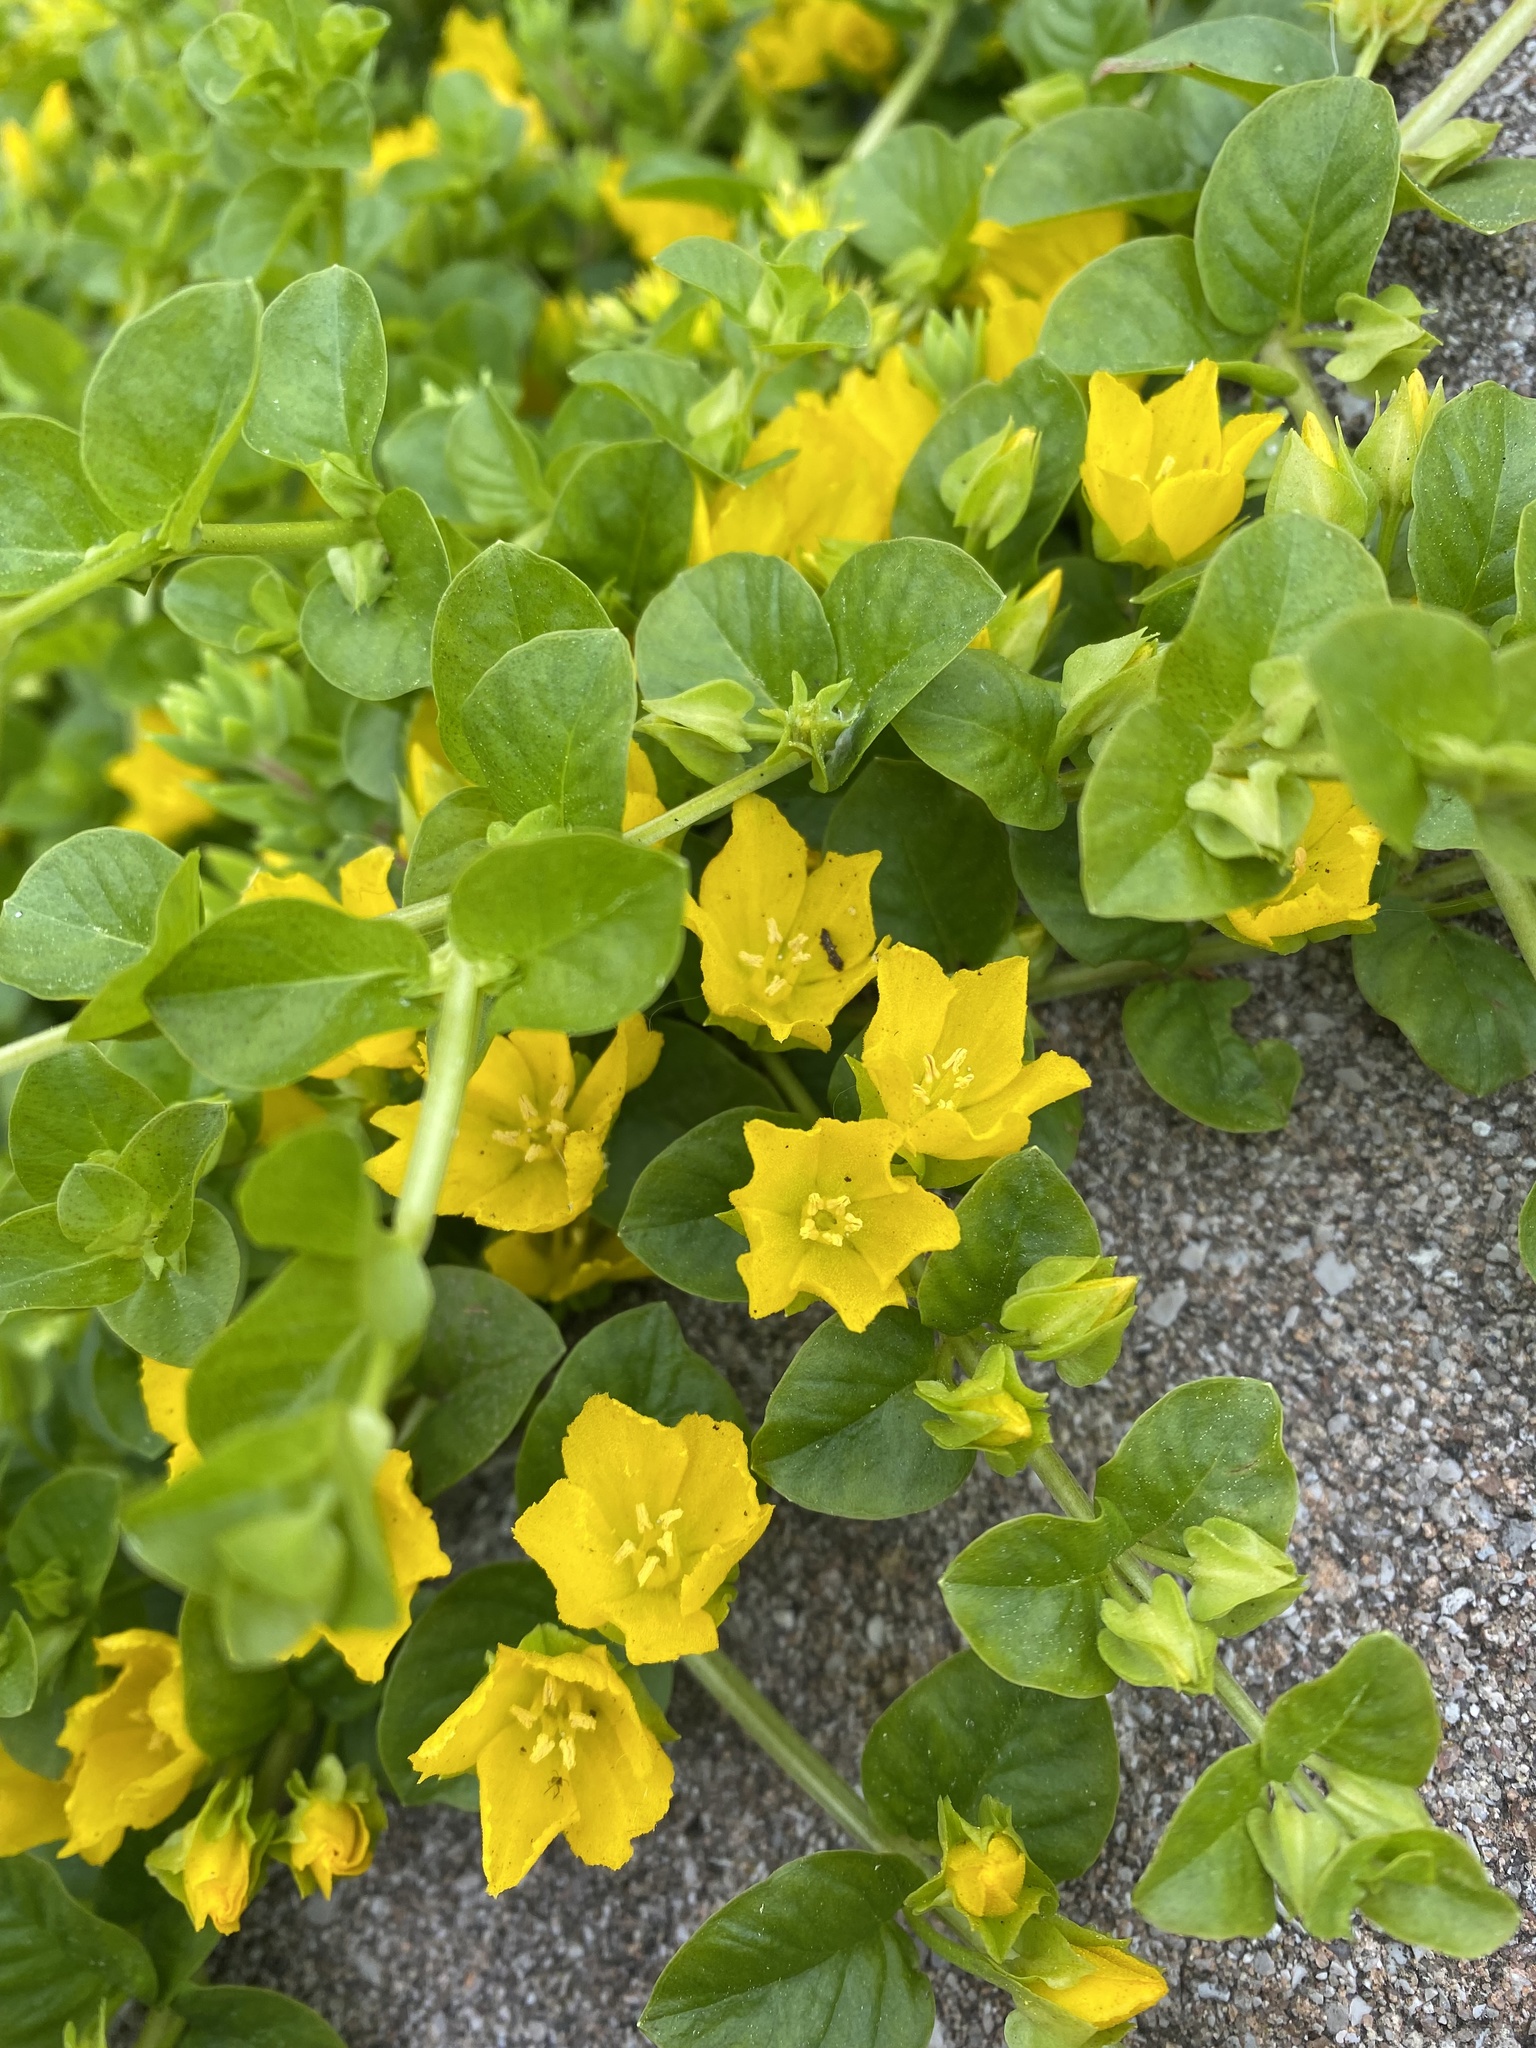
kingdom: Plantae
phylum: Tracheophyta
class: Magnoliopsida
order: Ericales
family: Primulaceae
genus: Lysimachia
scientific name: Lysimachia nummularia
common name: Moneywort
